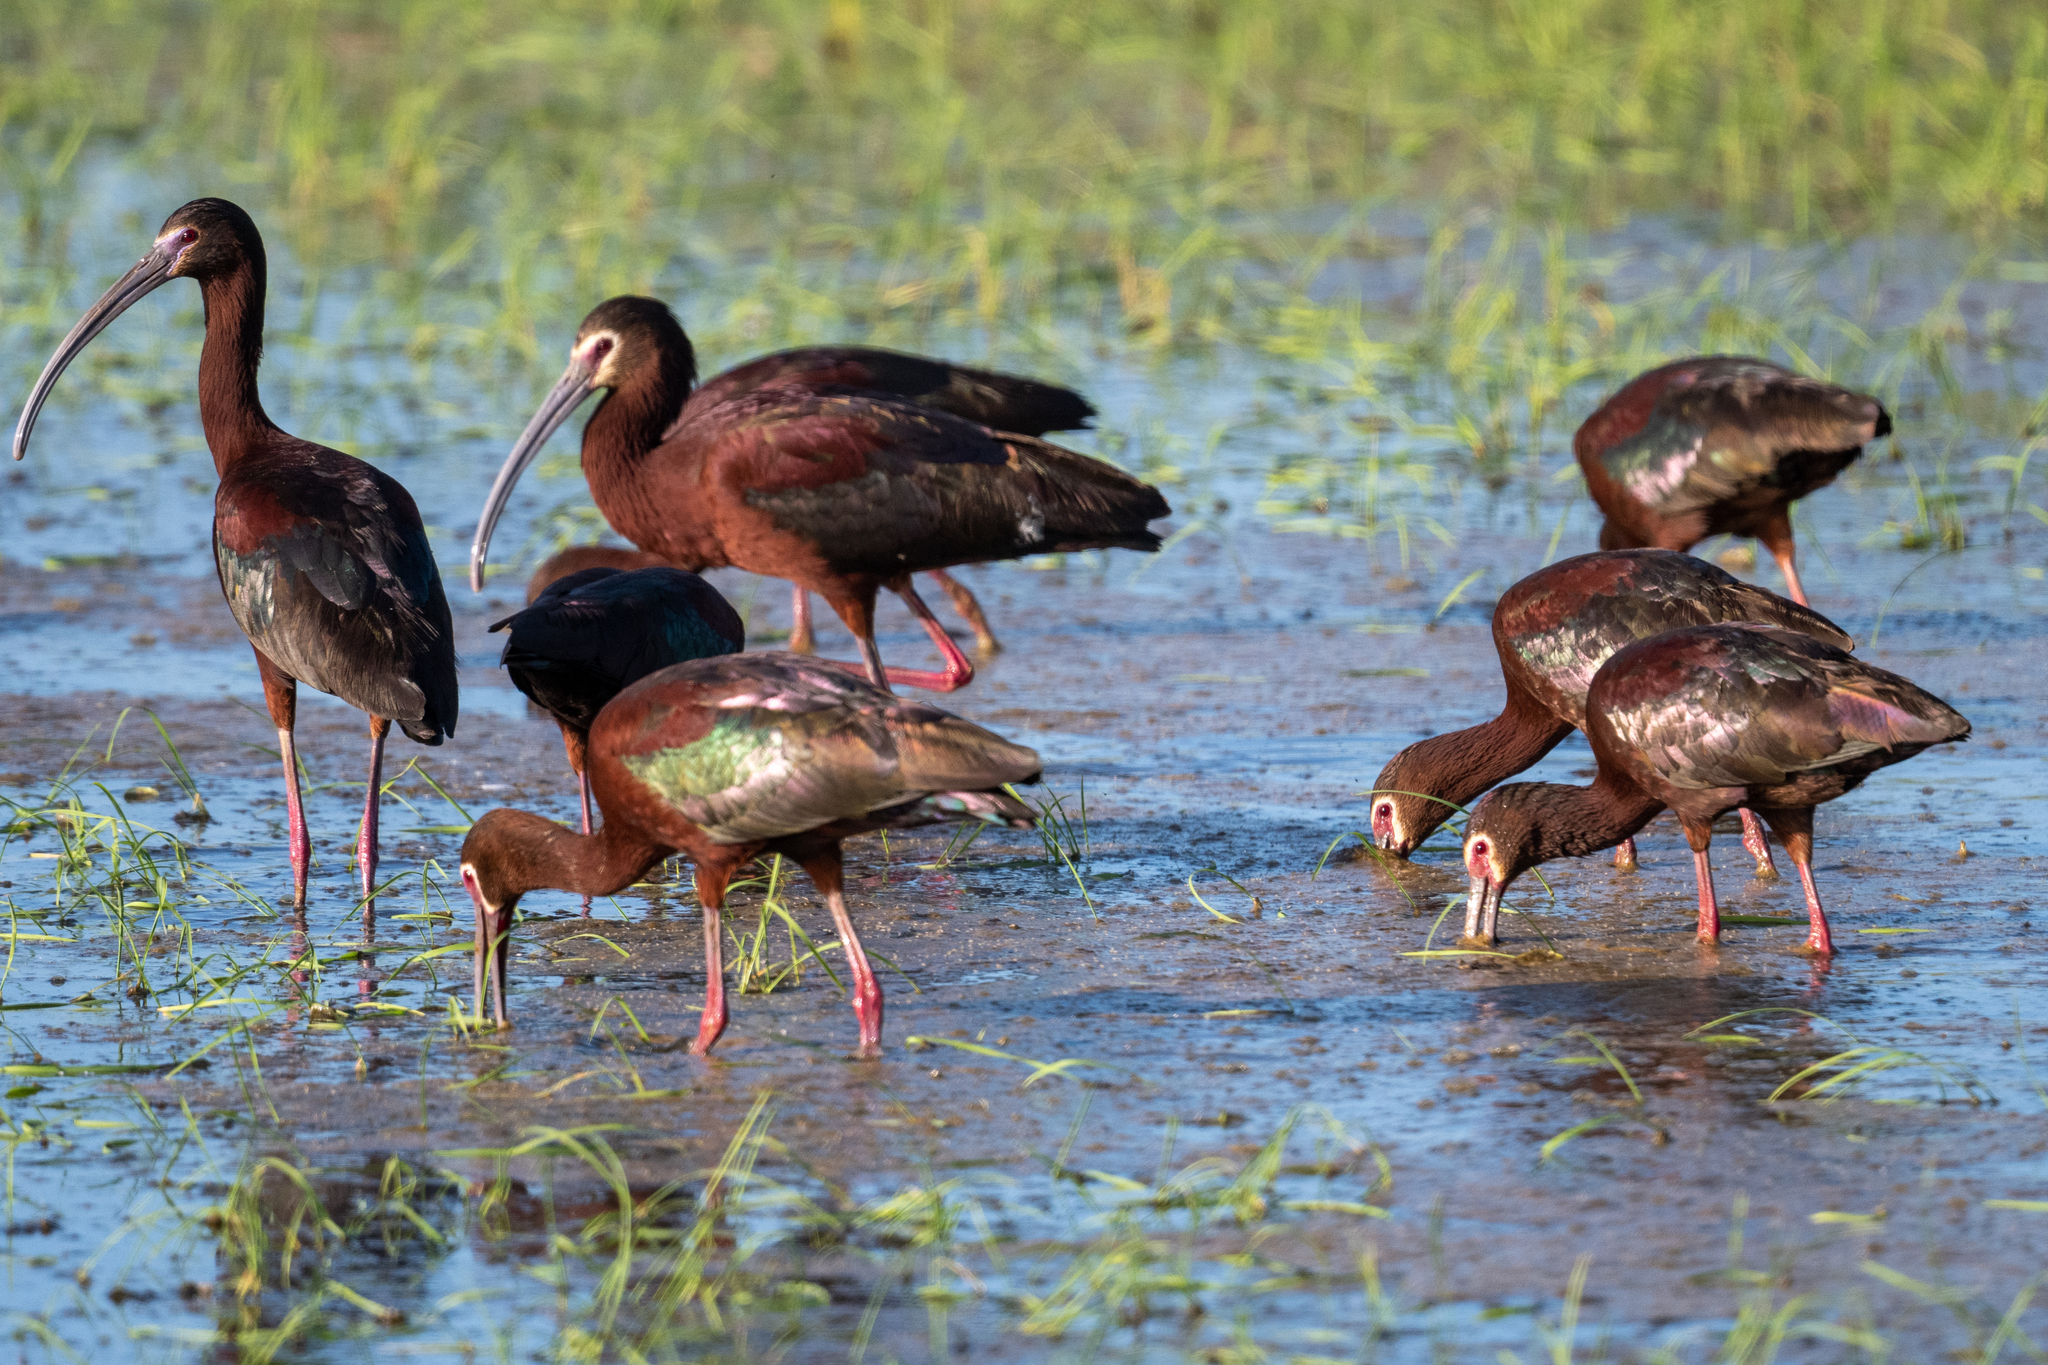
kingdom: Animalia
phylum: Chordata
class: Aves
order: Pelecaniformes
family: Threskiornithidae
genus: Plegadis
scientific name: Plegadis chihi
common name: White-faced ibis
